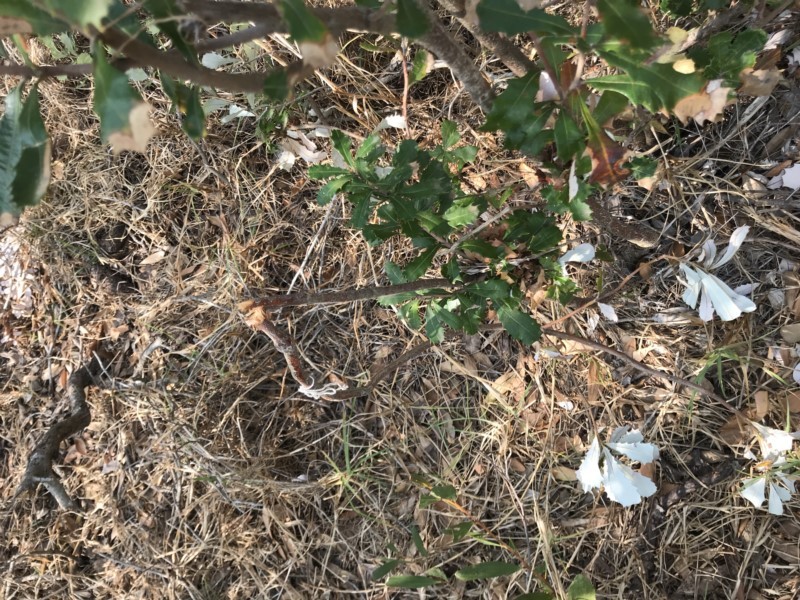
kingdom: Plantae
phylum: Tracheophyta
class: Magnoliopsida
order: Proteales
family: Proteaceae
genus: Banksia
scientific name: Banksia integrifolia
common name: White-honeysuckle
